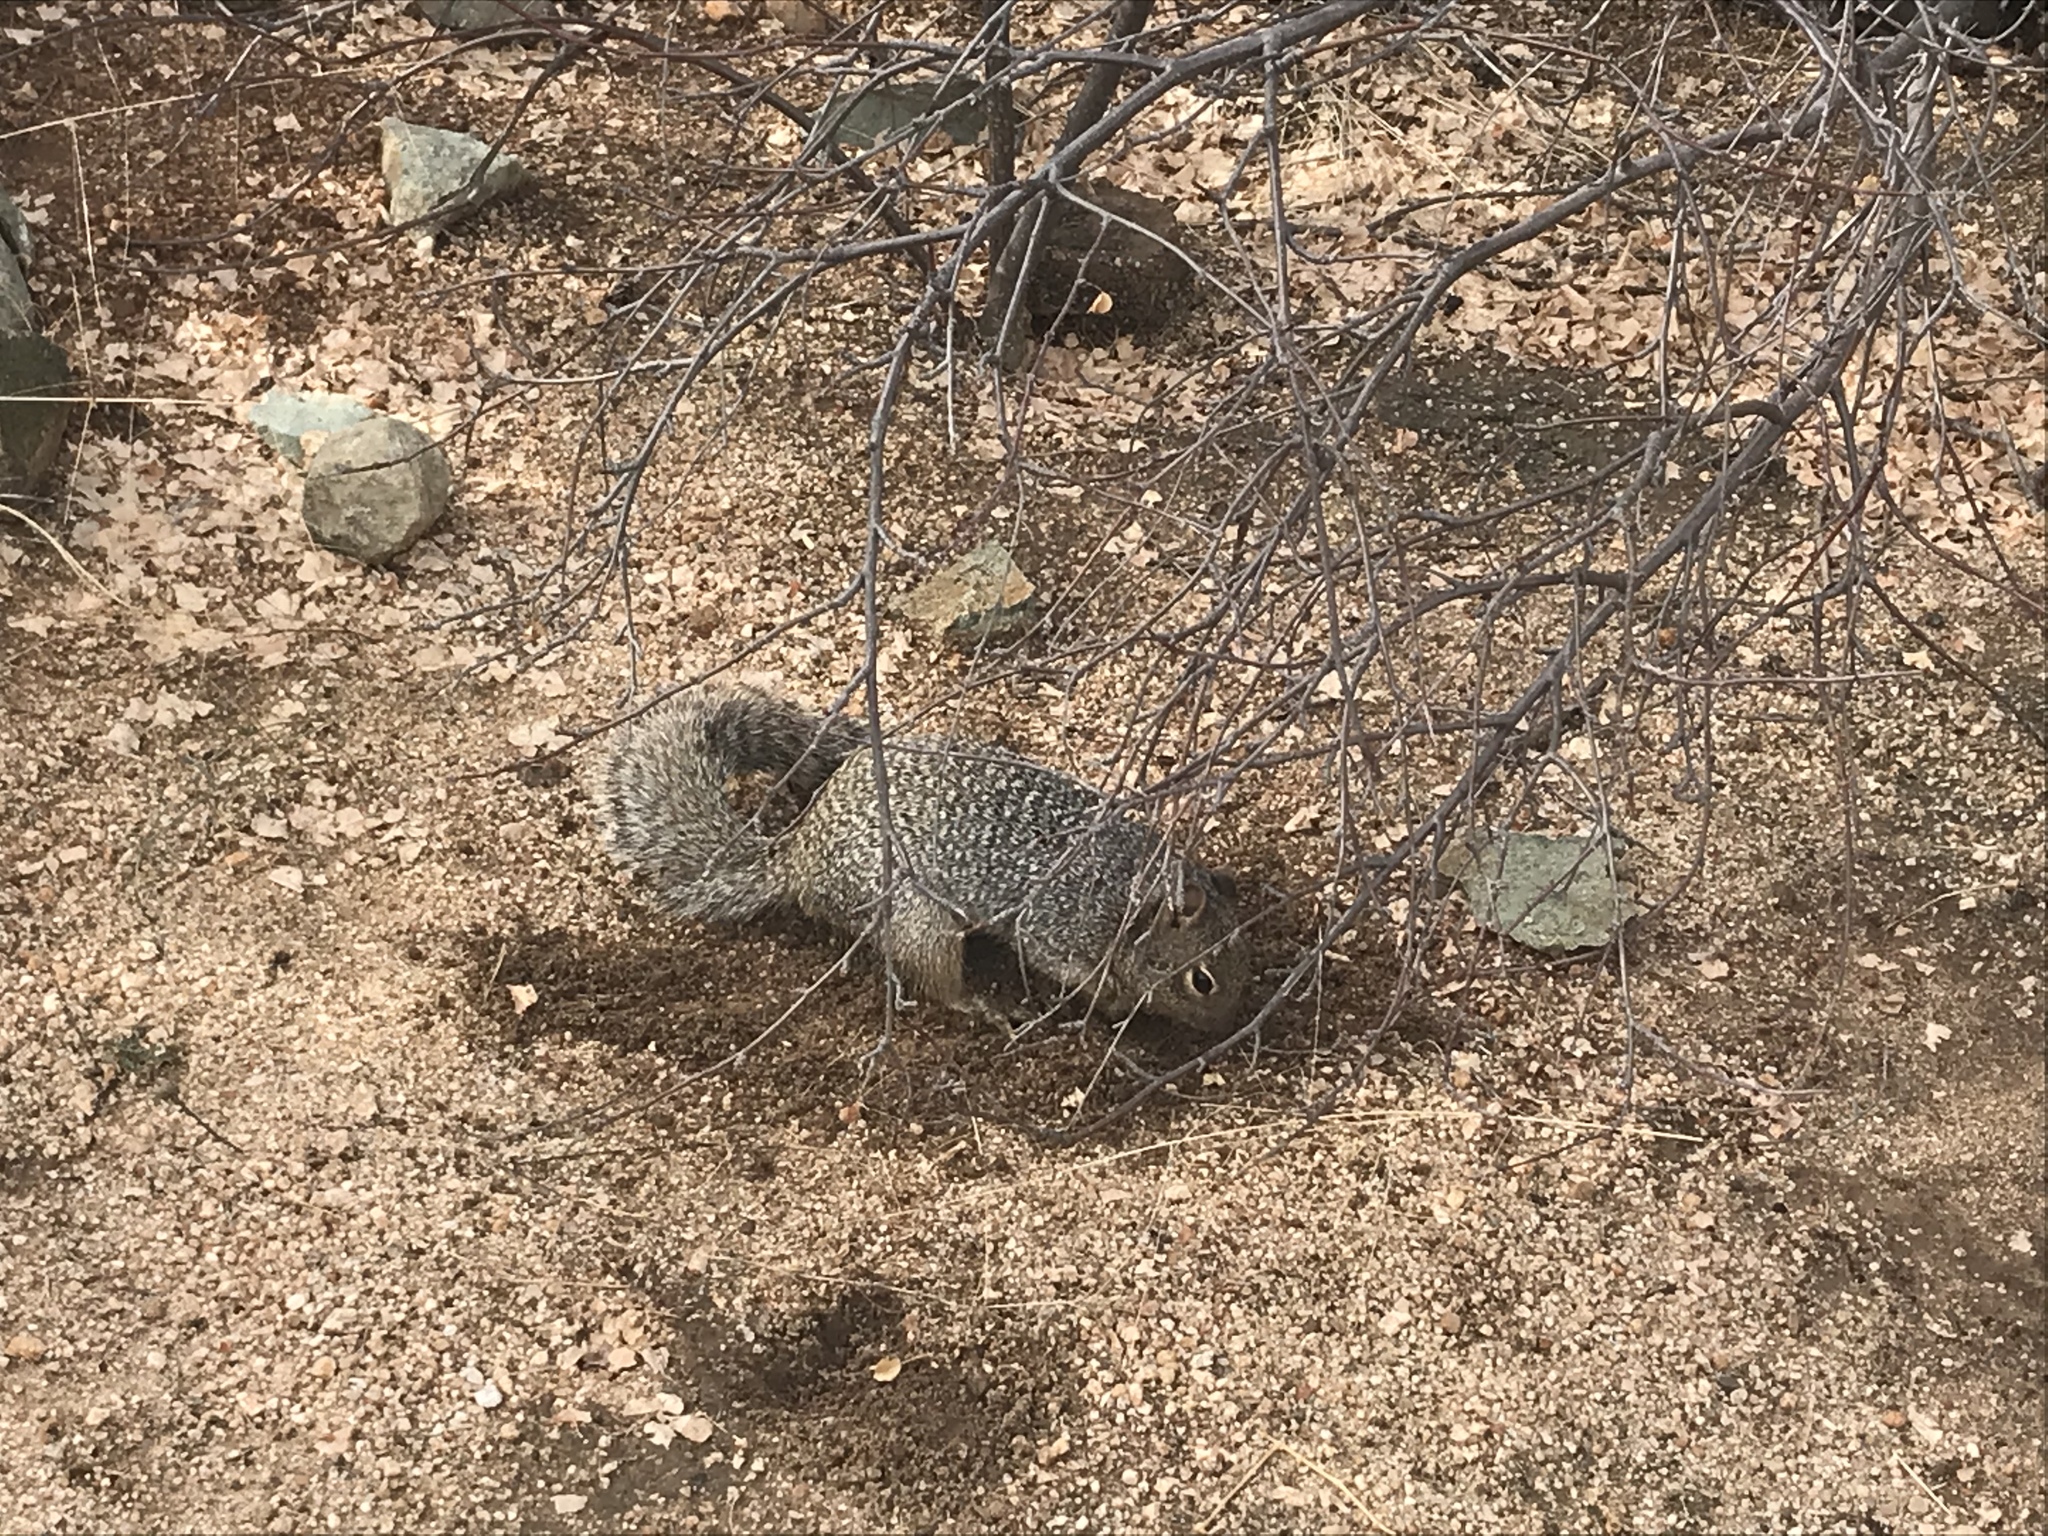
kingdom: Animalia
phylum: Chordata
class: Mammalia
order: Rodentia
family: Sciuridae
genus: Otospermophilus
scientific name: Otospermophilus variegatus
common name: Rock squirrel
